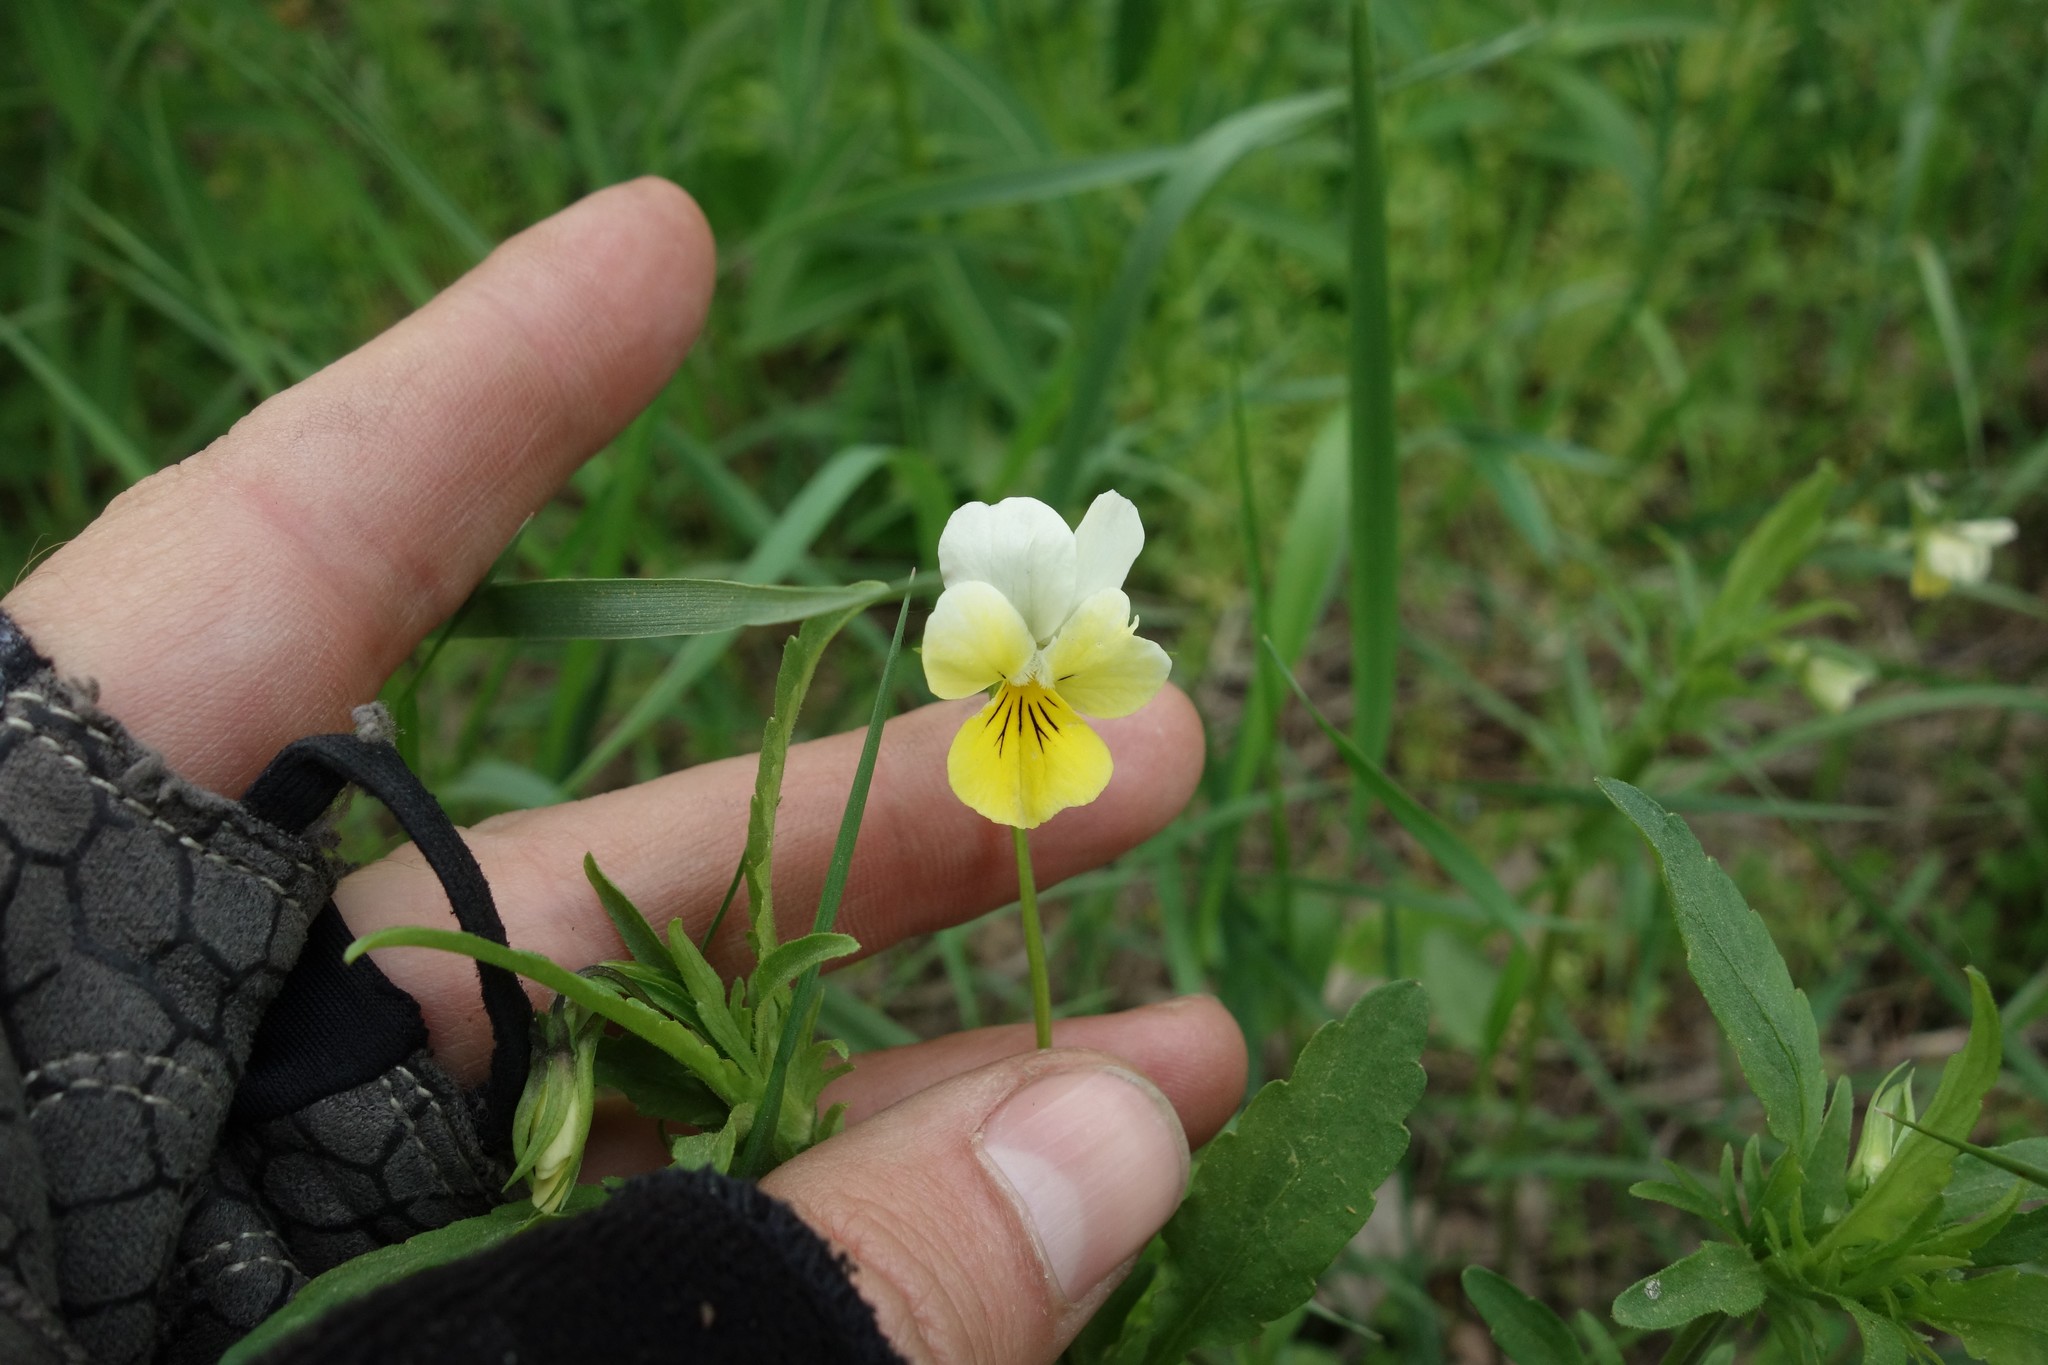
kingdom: Plantae
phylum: Tracheophyta
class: Magnoliopsida
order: Malpighiales
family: Violaceae
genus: Viola
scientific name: Viola tricolor
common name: Pansy
